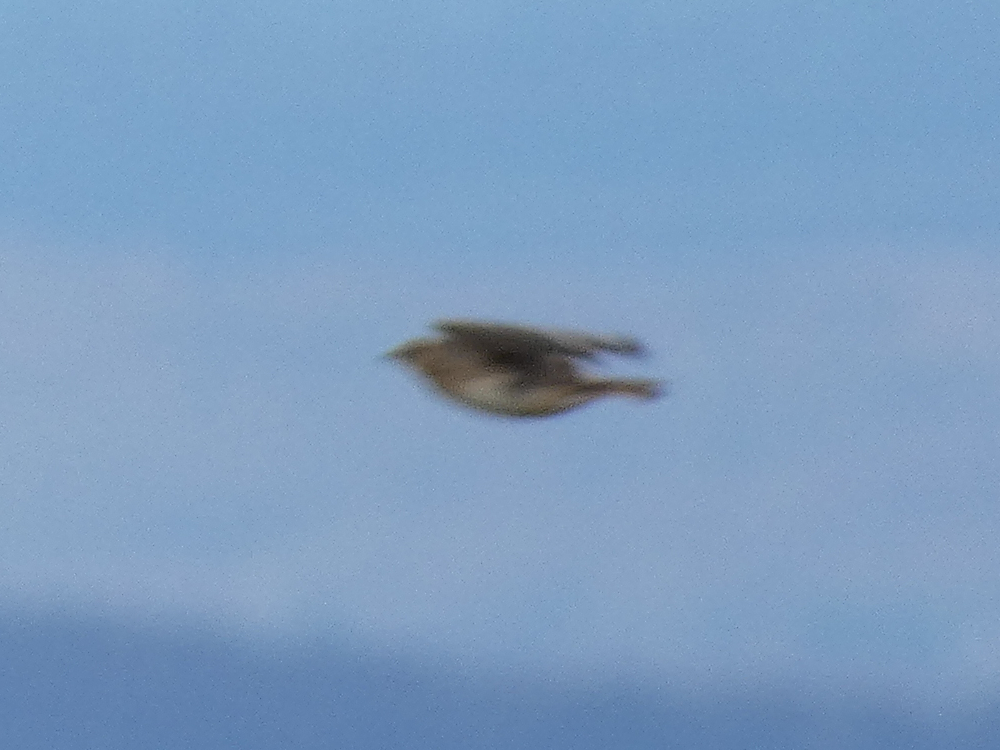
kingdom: Animalia
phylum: Chordata
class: Aves
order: Passeriformes
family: Alaudidae
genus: Alauda
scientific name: Alauda arvensis
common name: Eurasian skylark
